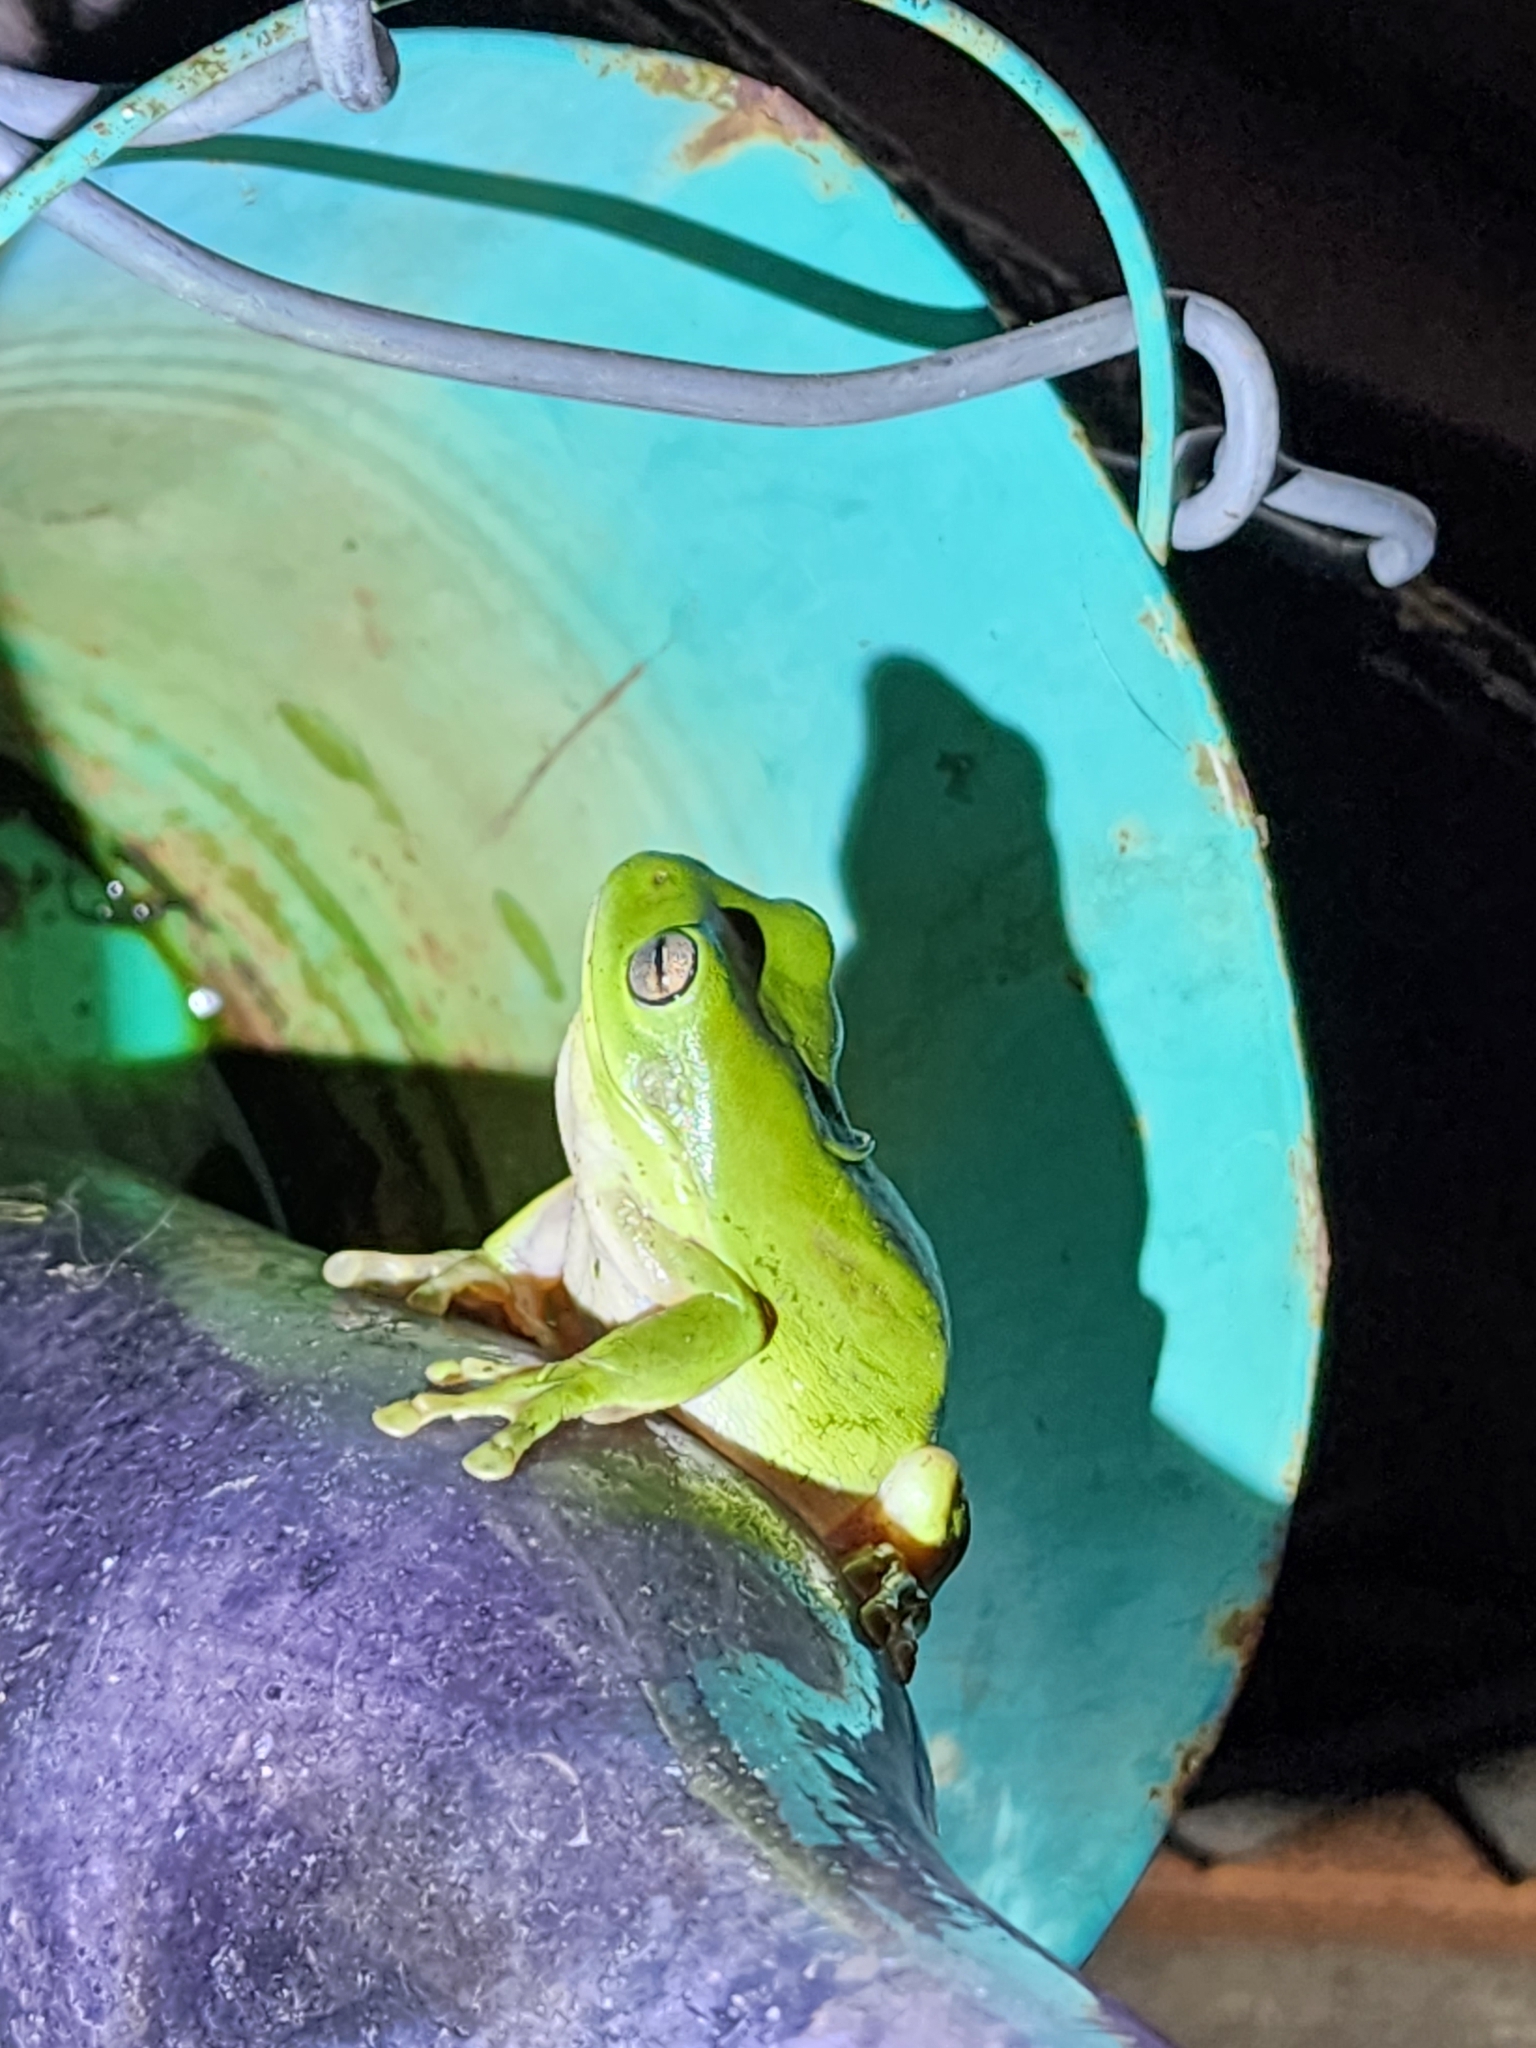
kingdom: Animalia
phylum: Chordata
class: Amphibia
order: Anura
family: Pelodryadidae
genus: Ranoidea
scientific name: Ranoidea caerulea
